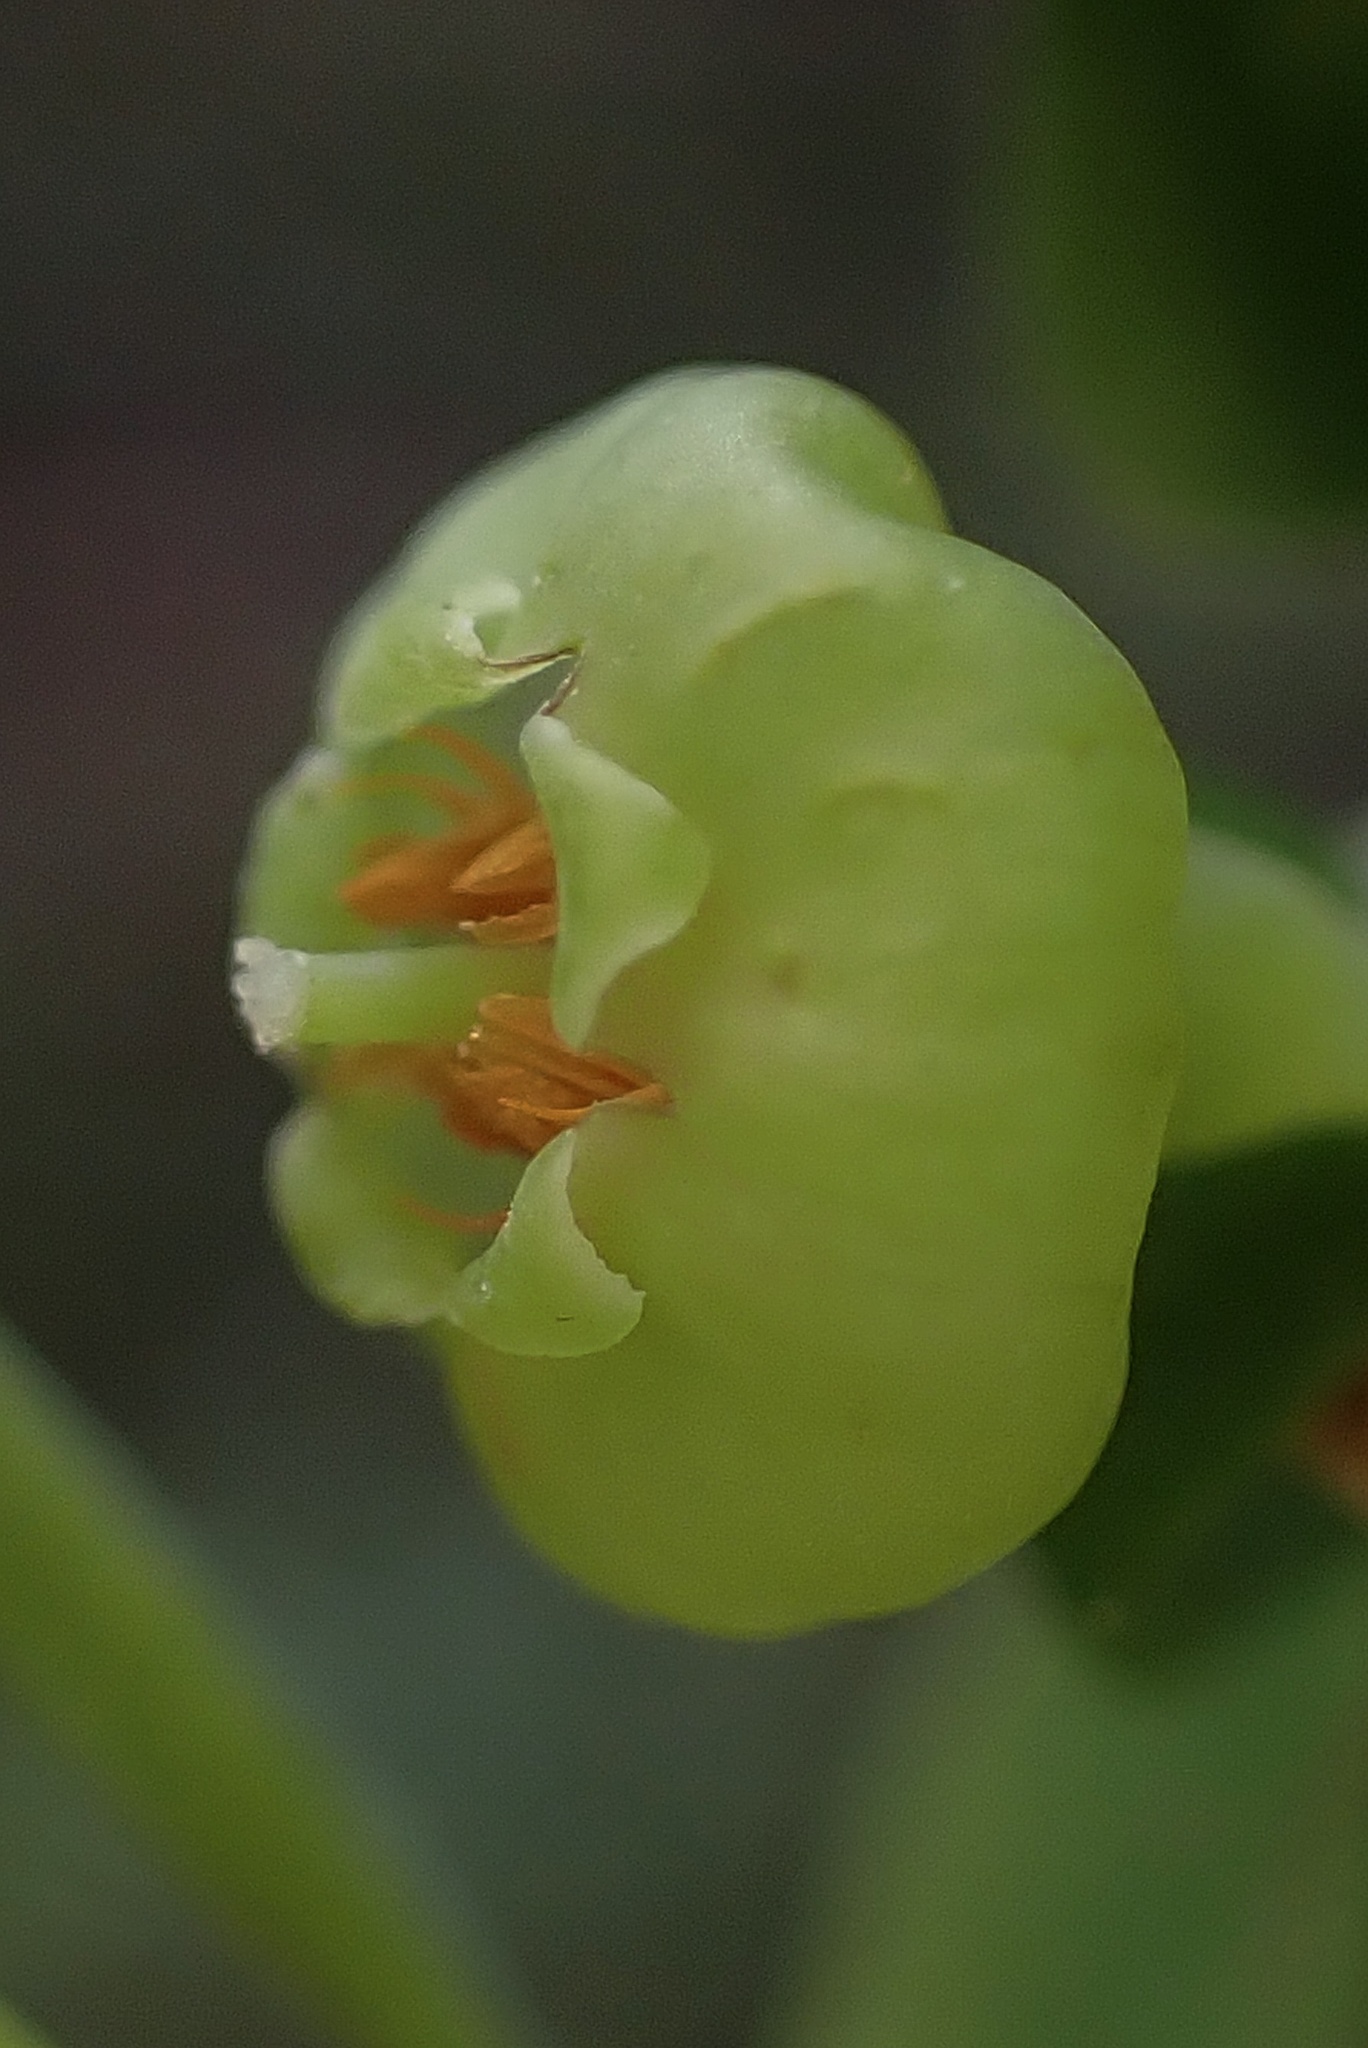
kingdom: Plantae
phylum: Tracheophyta
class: Magnoliopsida
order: Ericales
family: Ericaceae
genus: Vaccinium
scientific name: Vaccinium parvifolium
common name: Red-huckleberry
